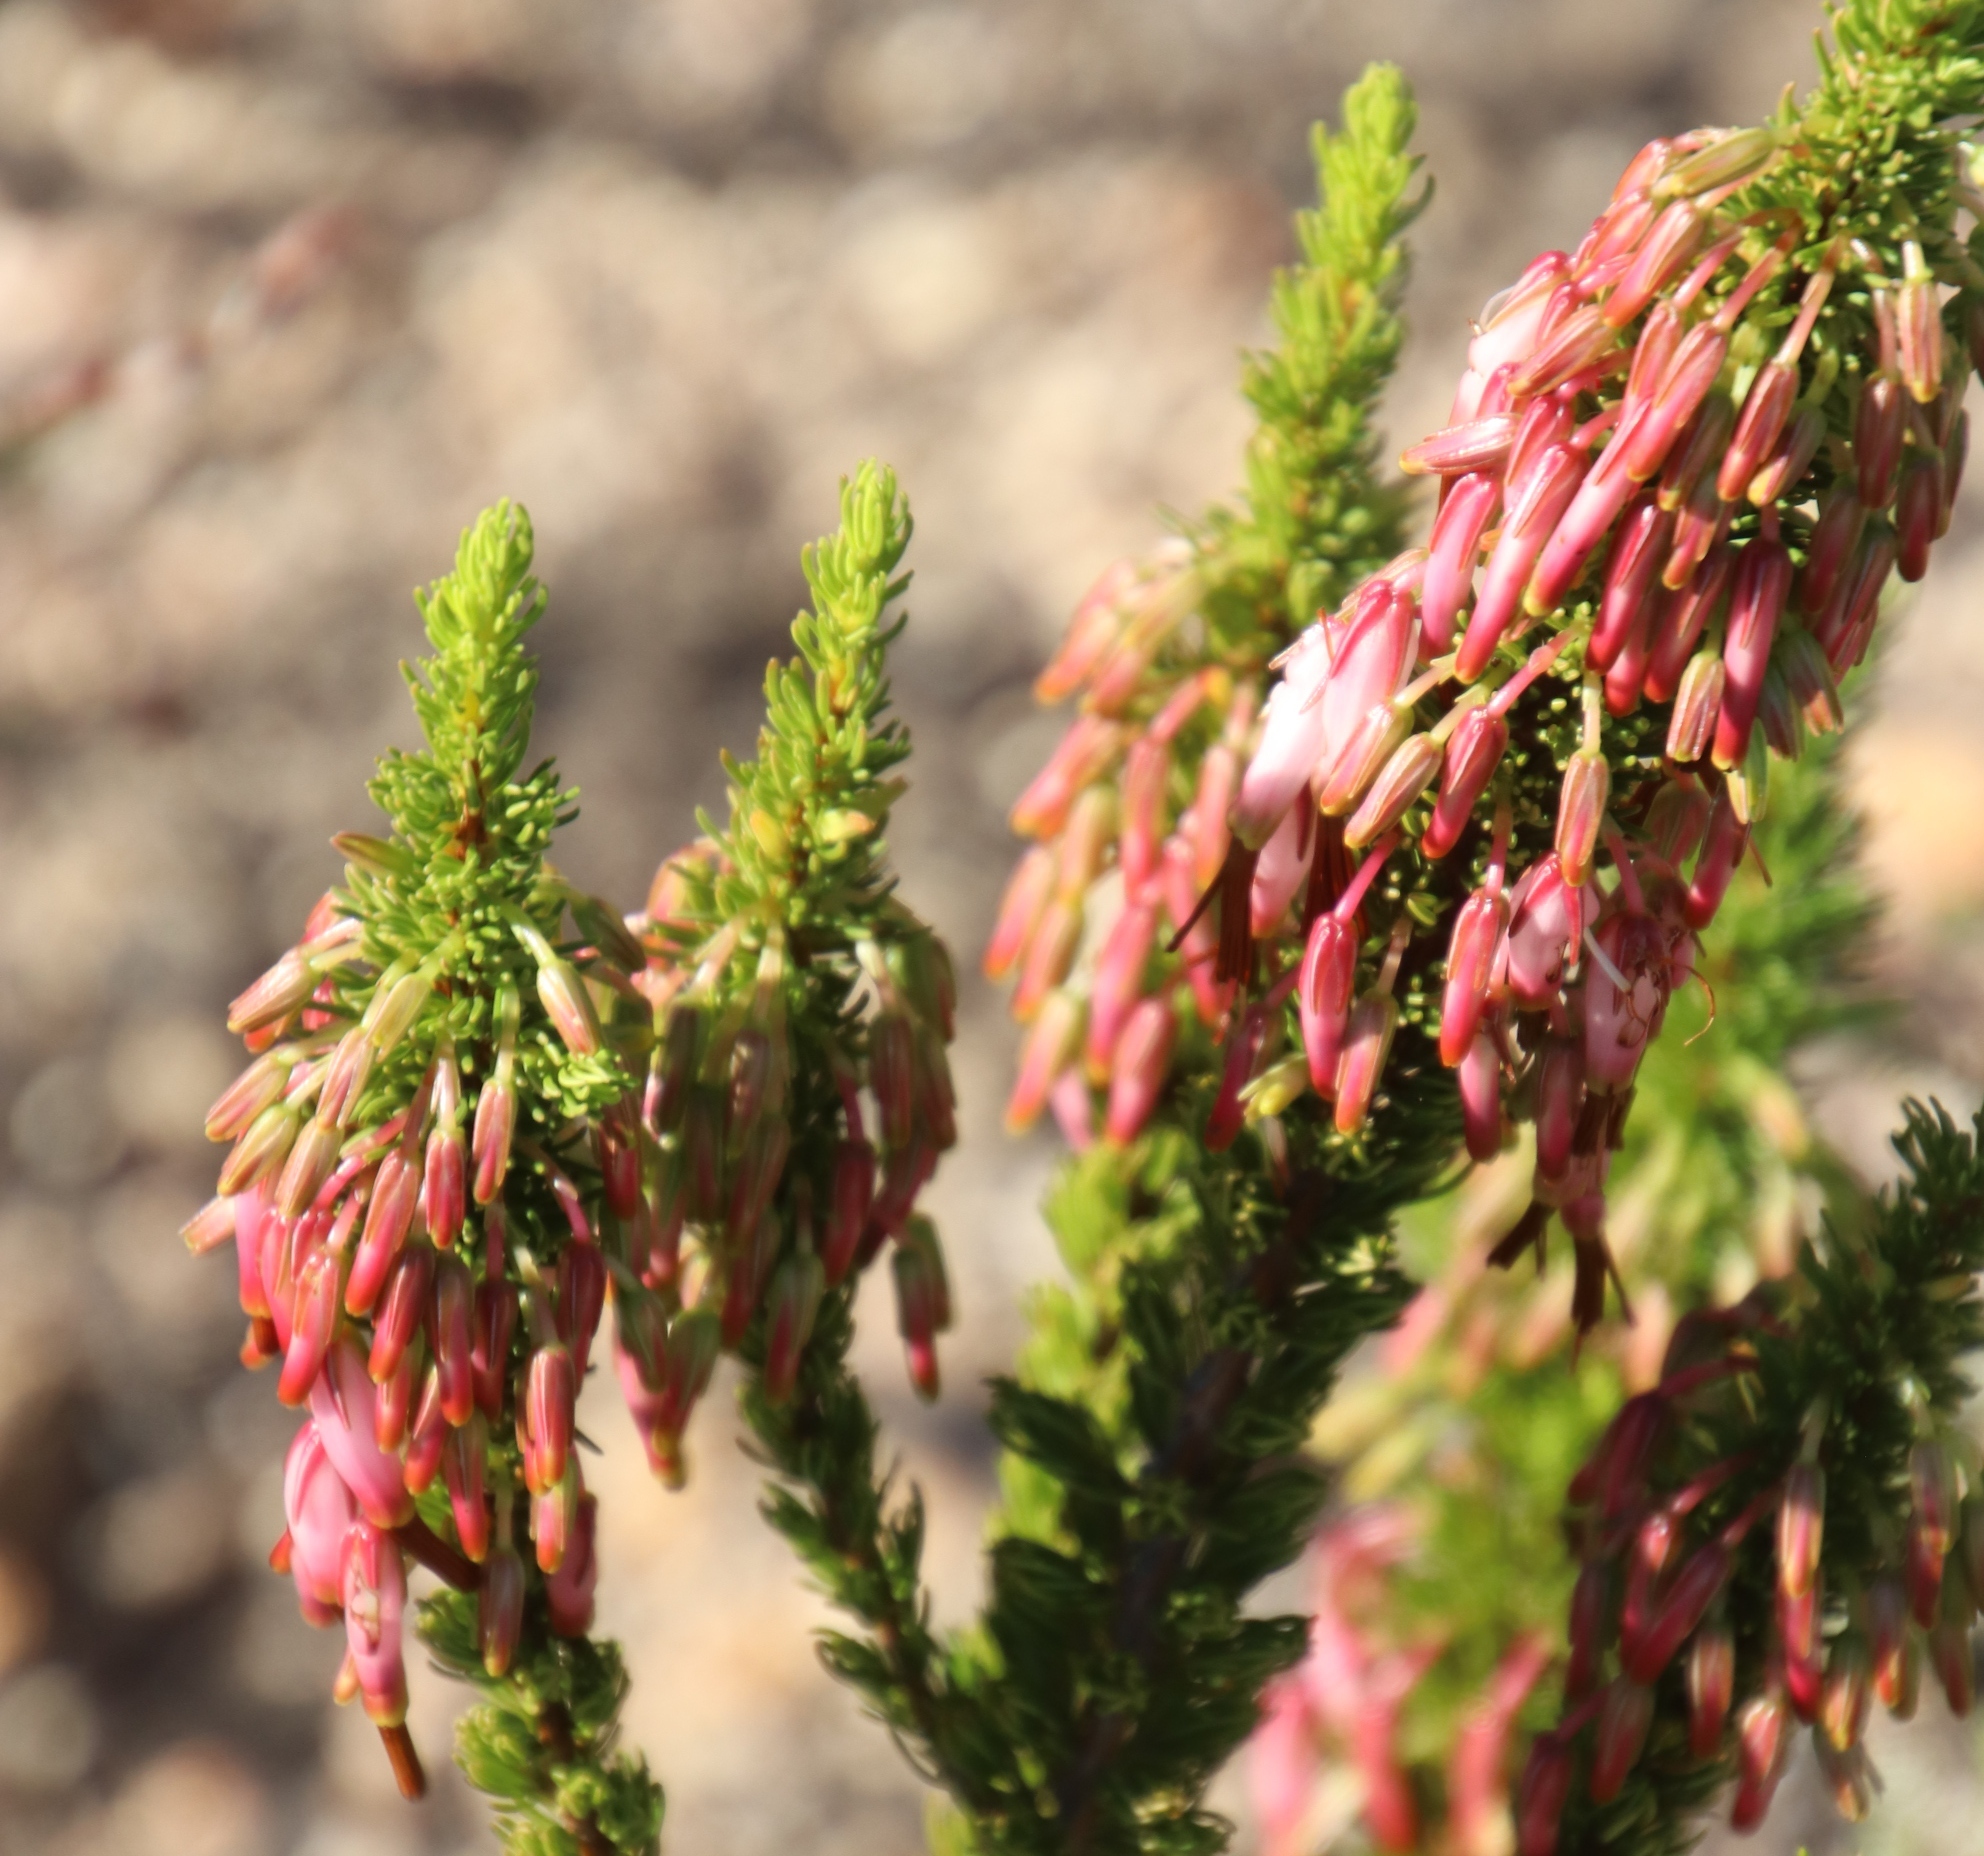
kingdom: Plantae
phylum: Tracheophyta
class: Magnoliopsida
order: Ericales
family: Ericaceae
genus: Erica
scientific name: Erica plukenetii
